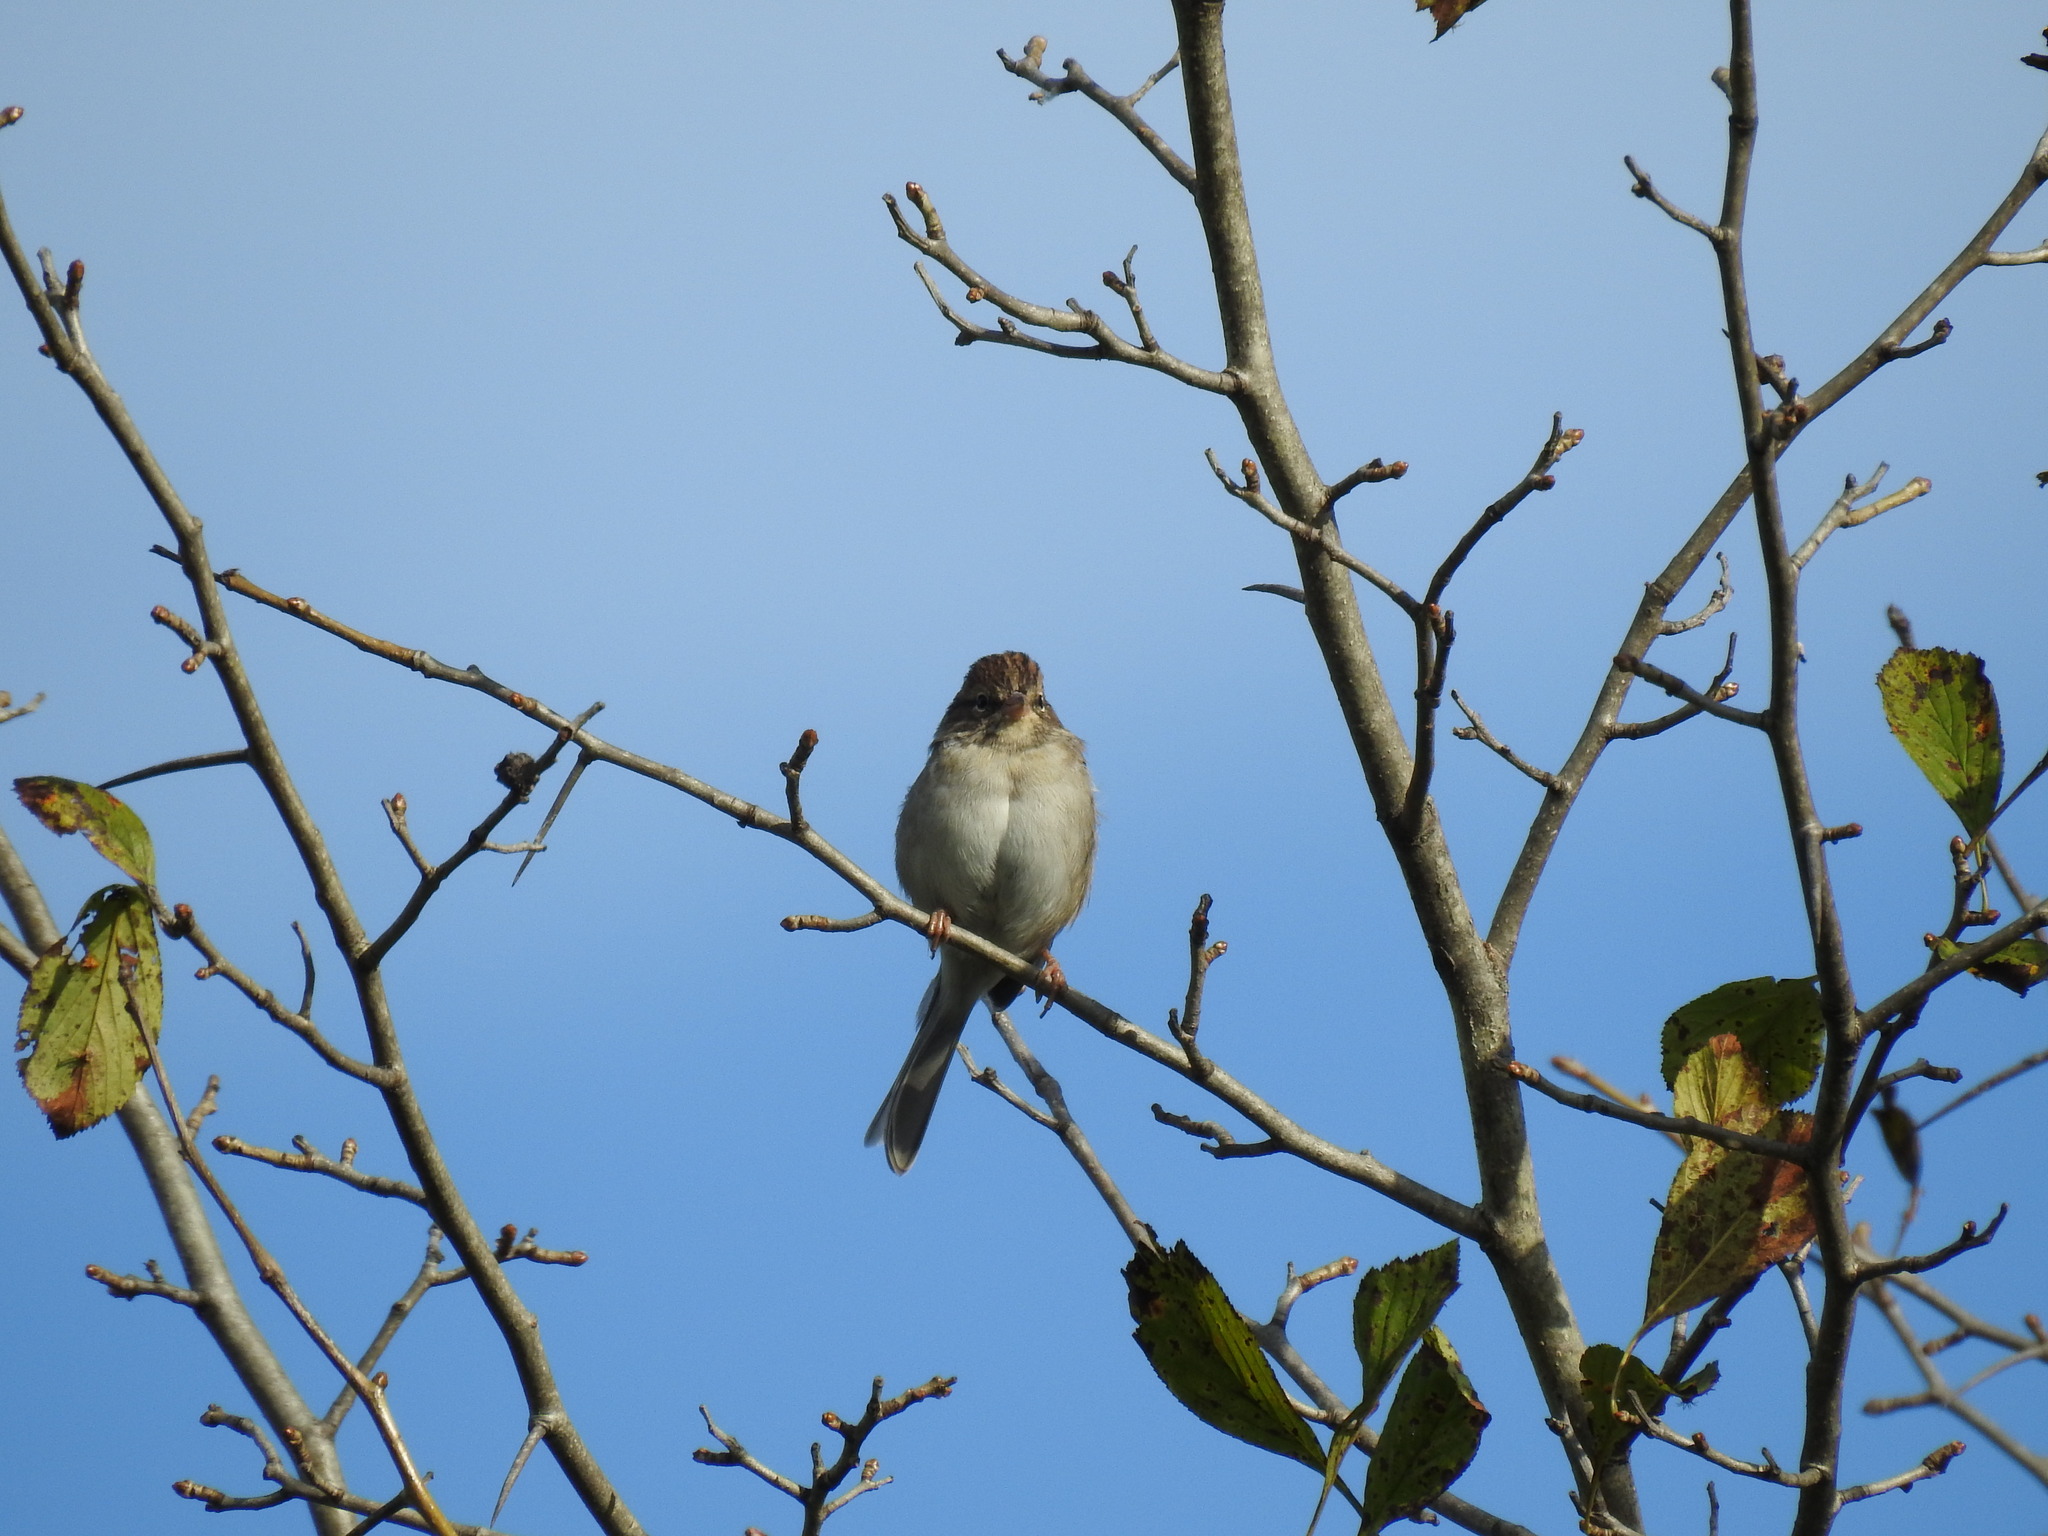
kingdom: Animalia
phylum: Chordata
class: Aves
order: Passeriformes
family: Passerellidae
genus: Spizella
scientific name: Spizella passerina
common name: Chipping sparrow
